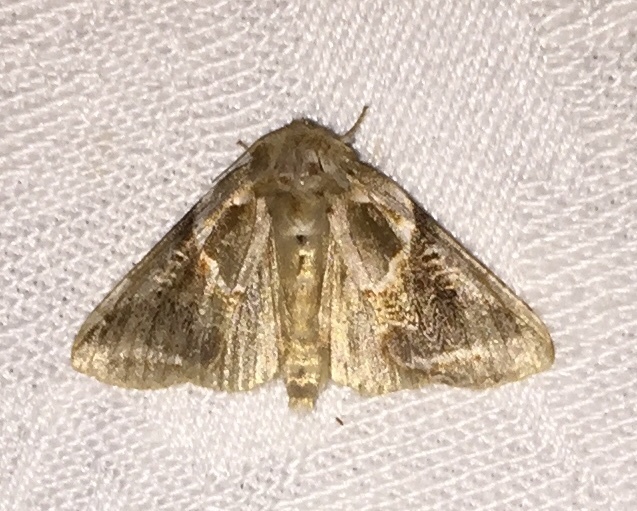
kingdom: Animalia
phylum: Arthropoda
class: Insecta
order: Lepidoptera
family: Drepanidae
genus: Habrosyne
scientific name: Habrosyne scripta
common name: Lettered habrosyne moth
